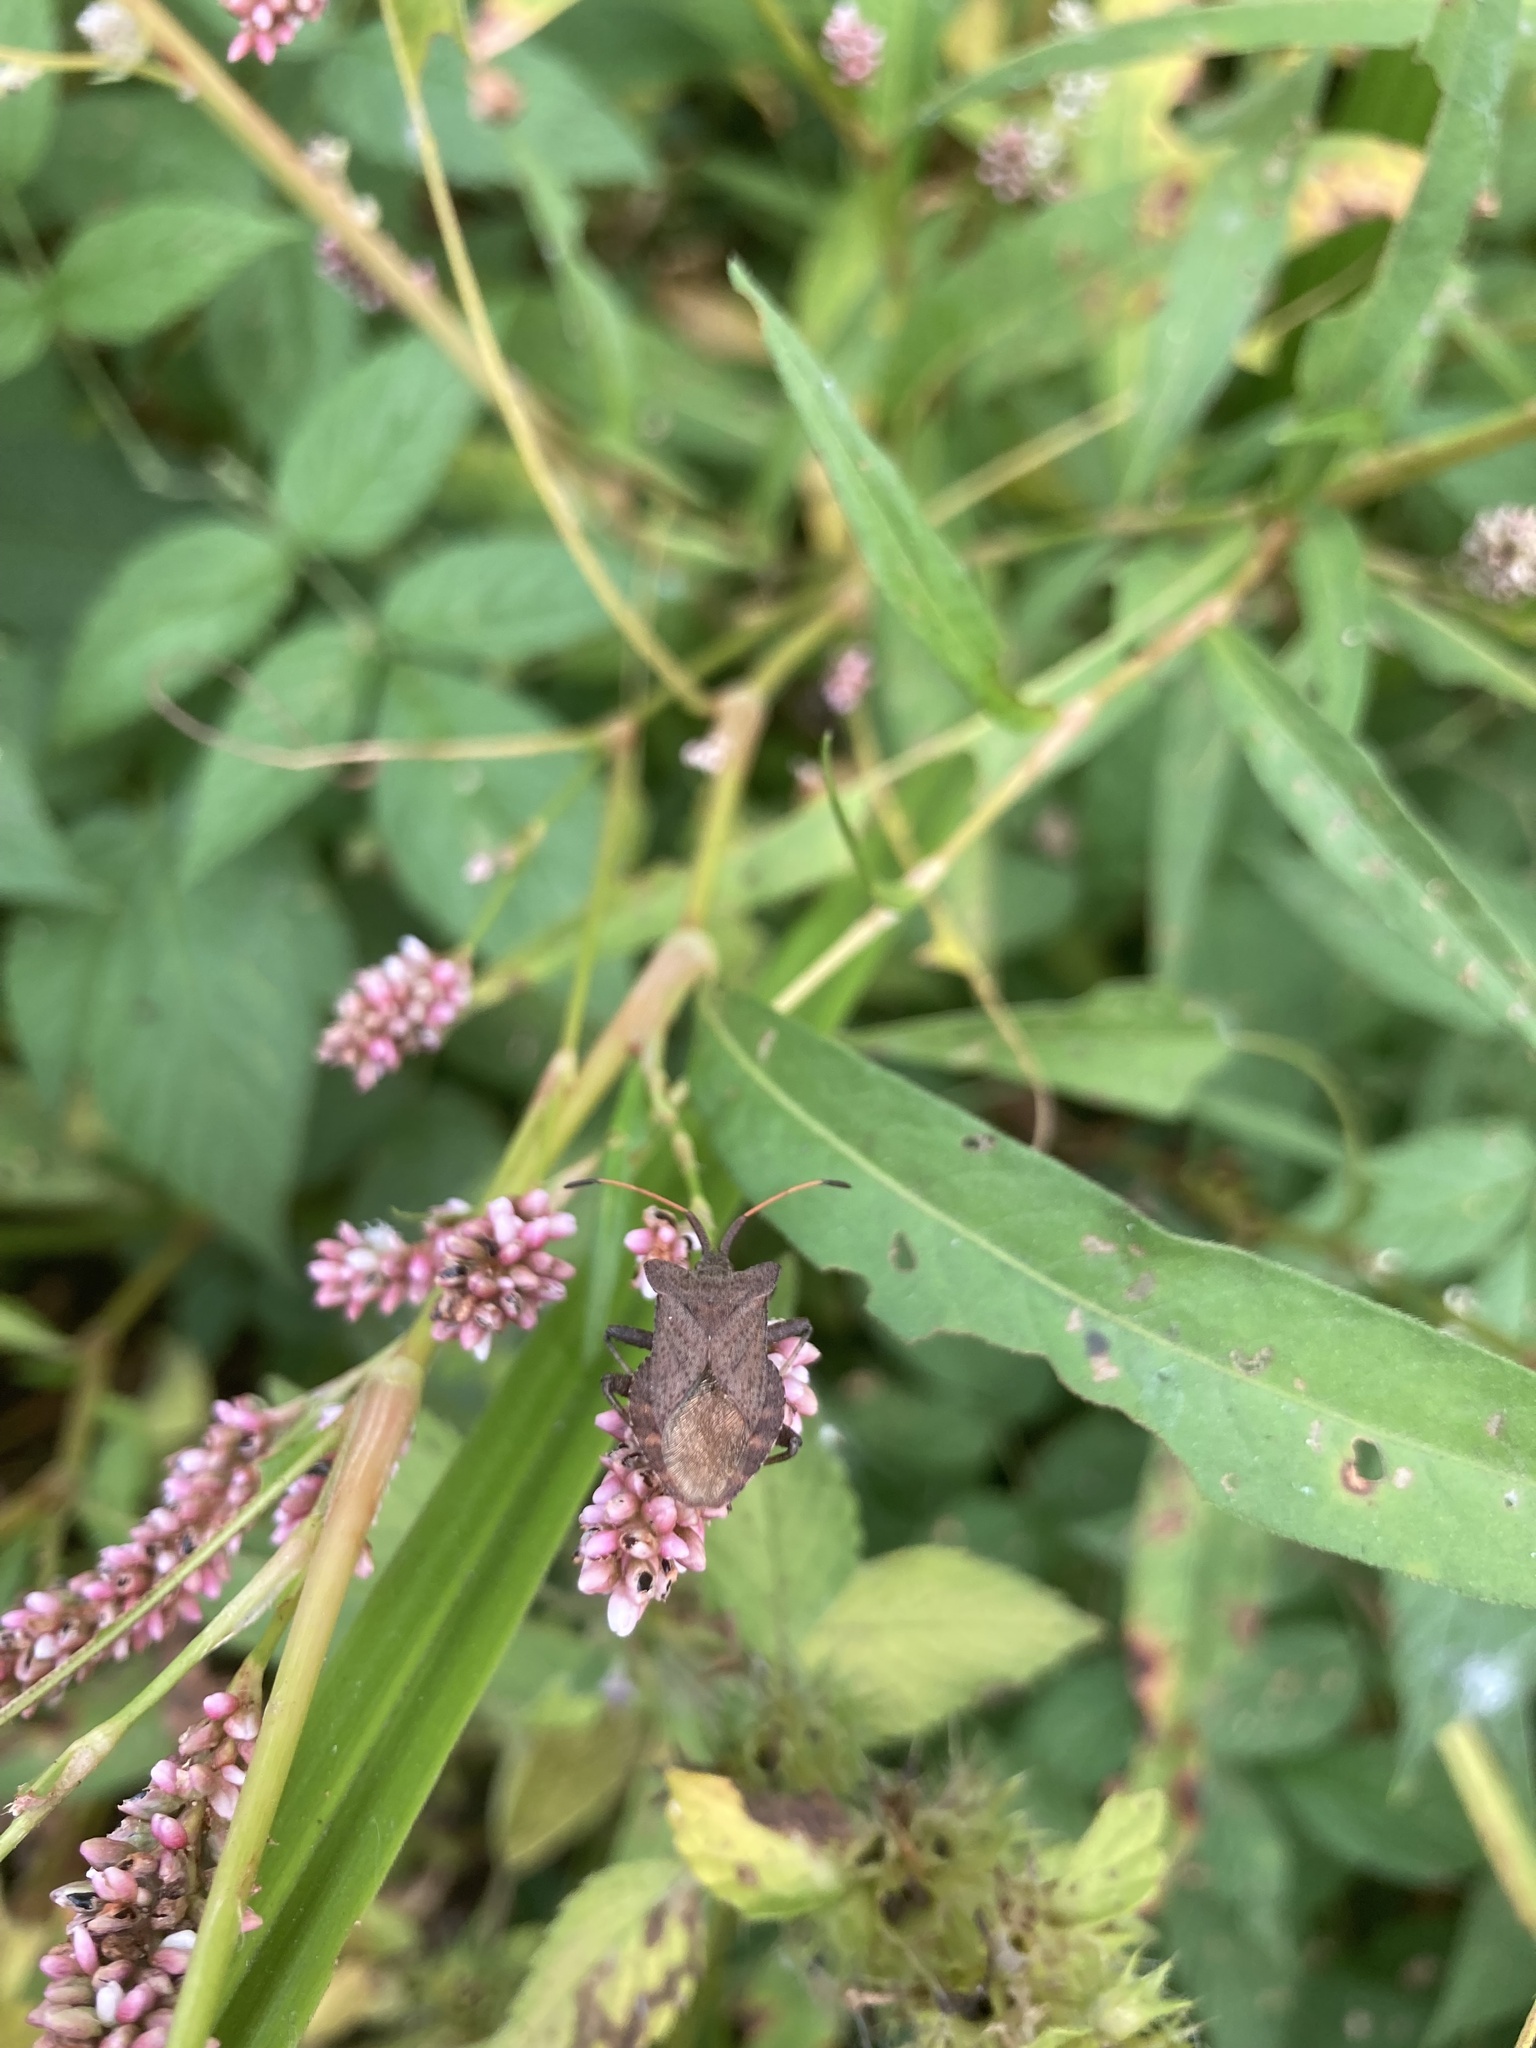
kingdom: Animalia
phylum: Arthropoda
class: Insecta
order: Hemiptera
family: Coreidae
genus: Coreus
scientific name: Coreus marginatus
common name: Dock bug
